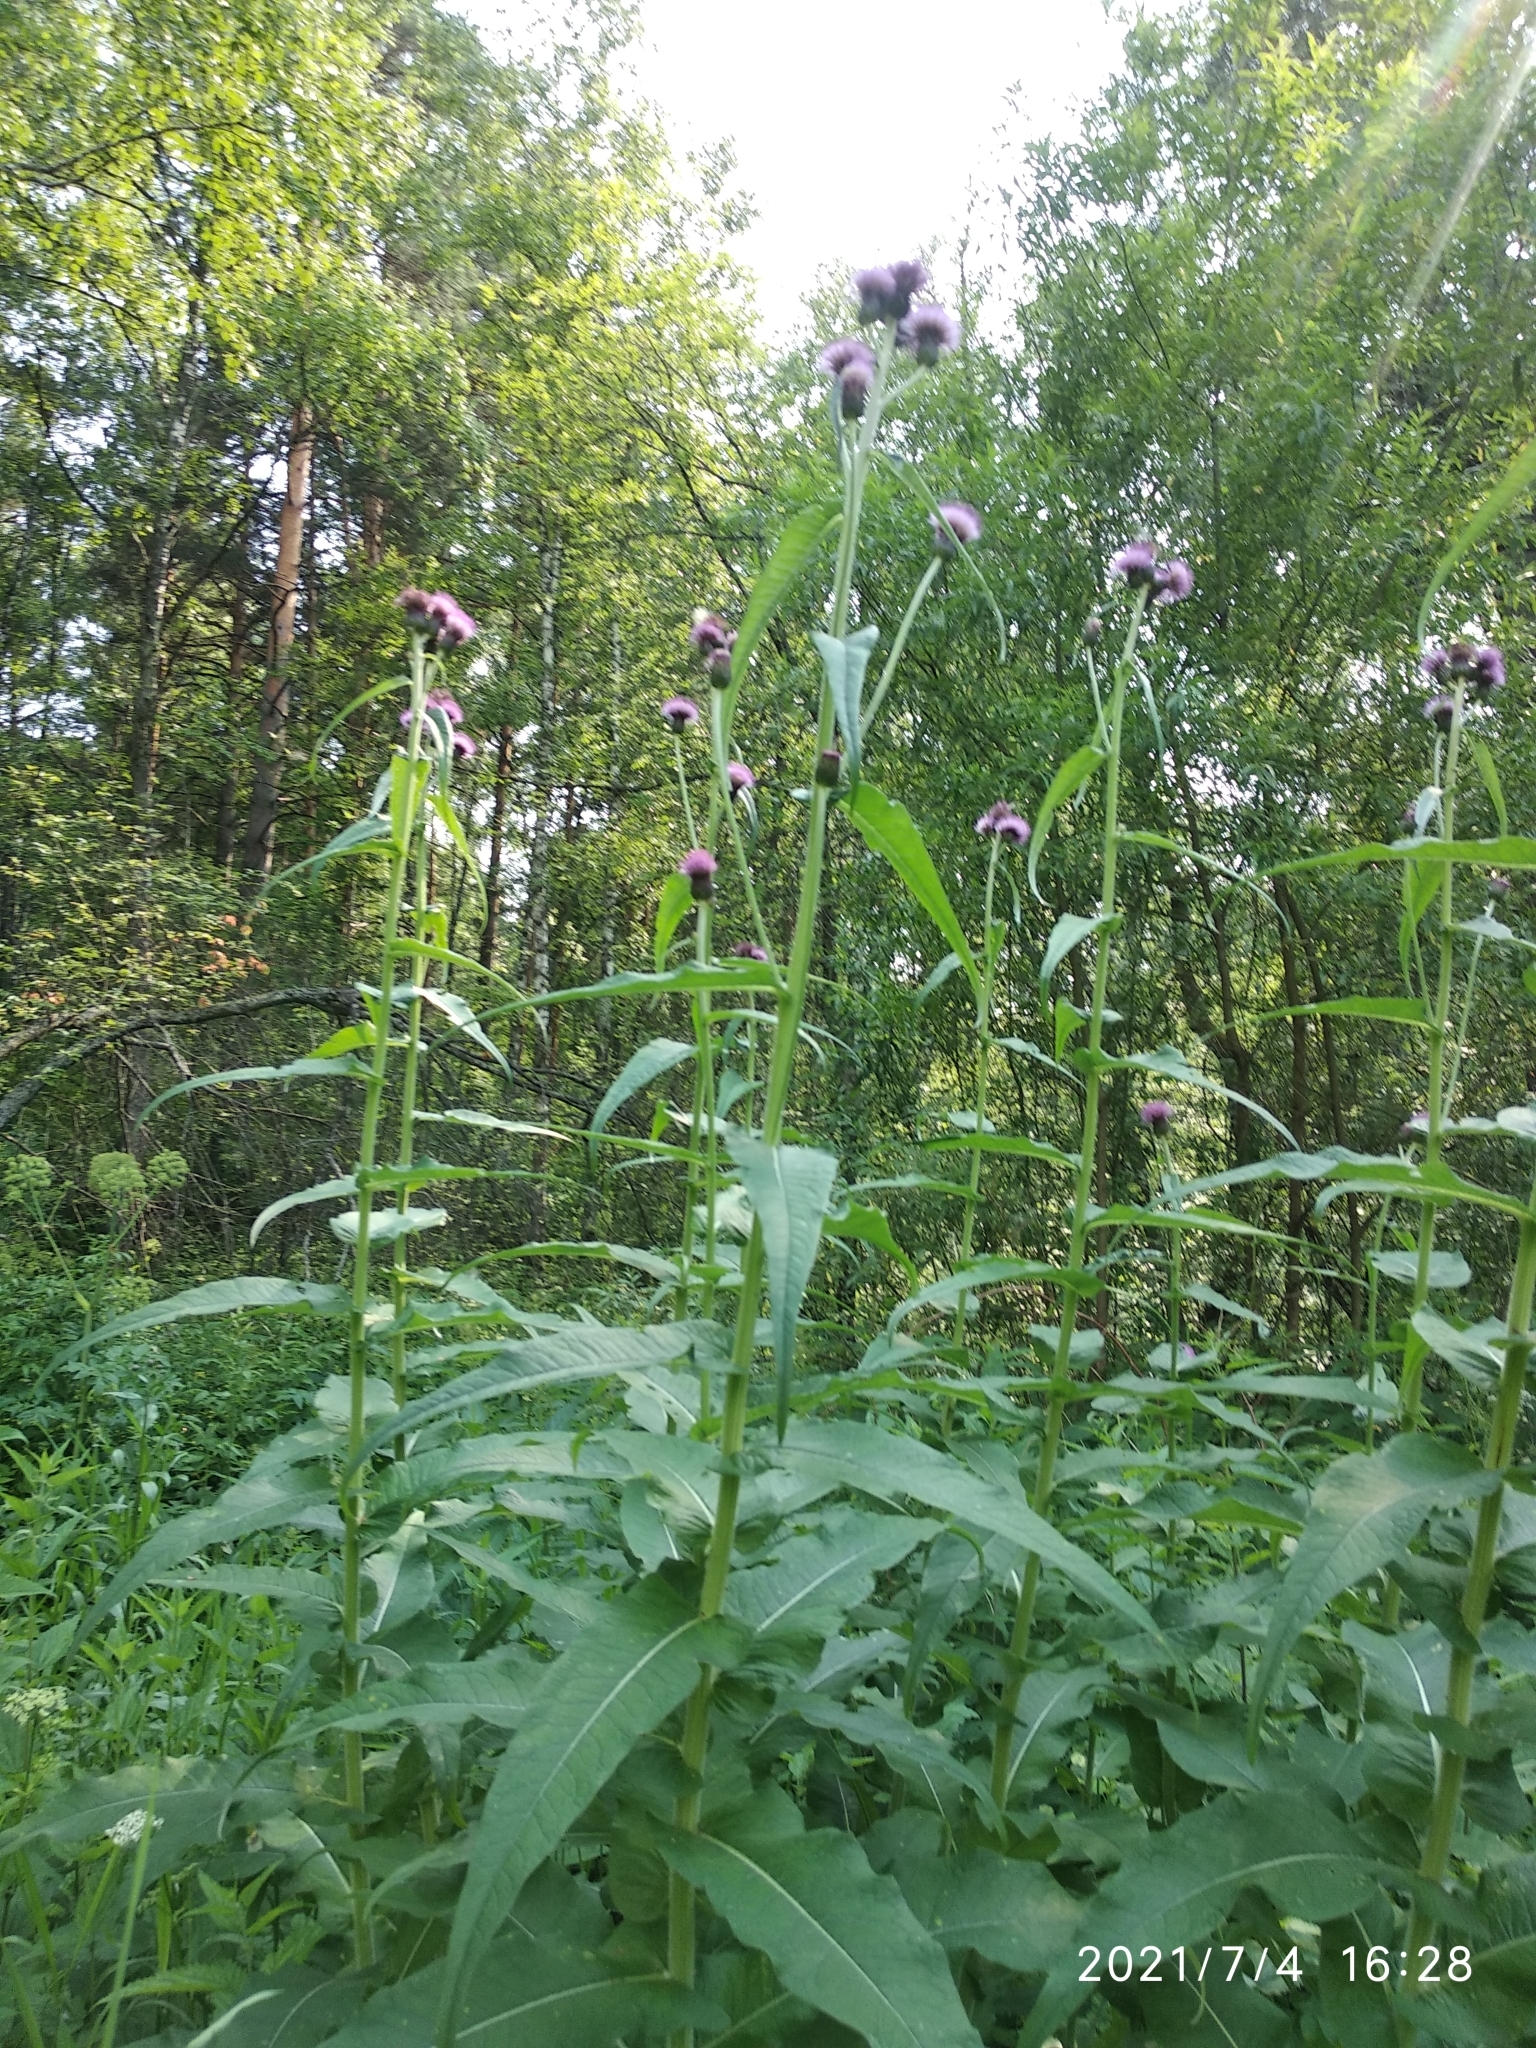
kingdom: Plantae
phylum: Tracheophyta
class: Magnoliopsida
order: Asterales
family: Asteraceae
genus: Cirsium
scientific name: Cirsium heterophyllum
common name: Melancholy thistle
